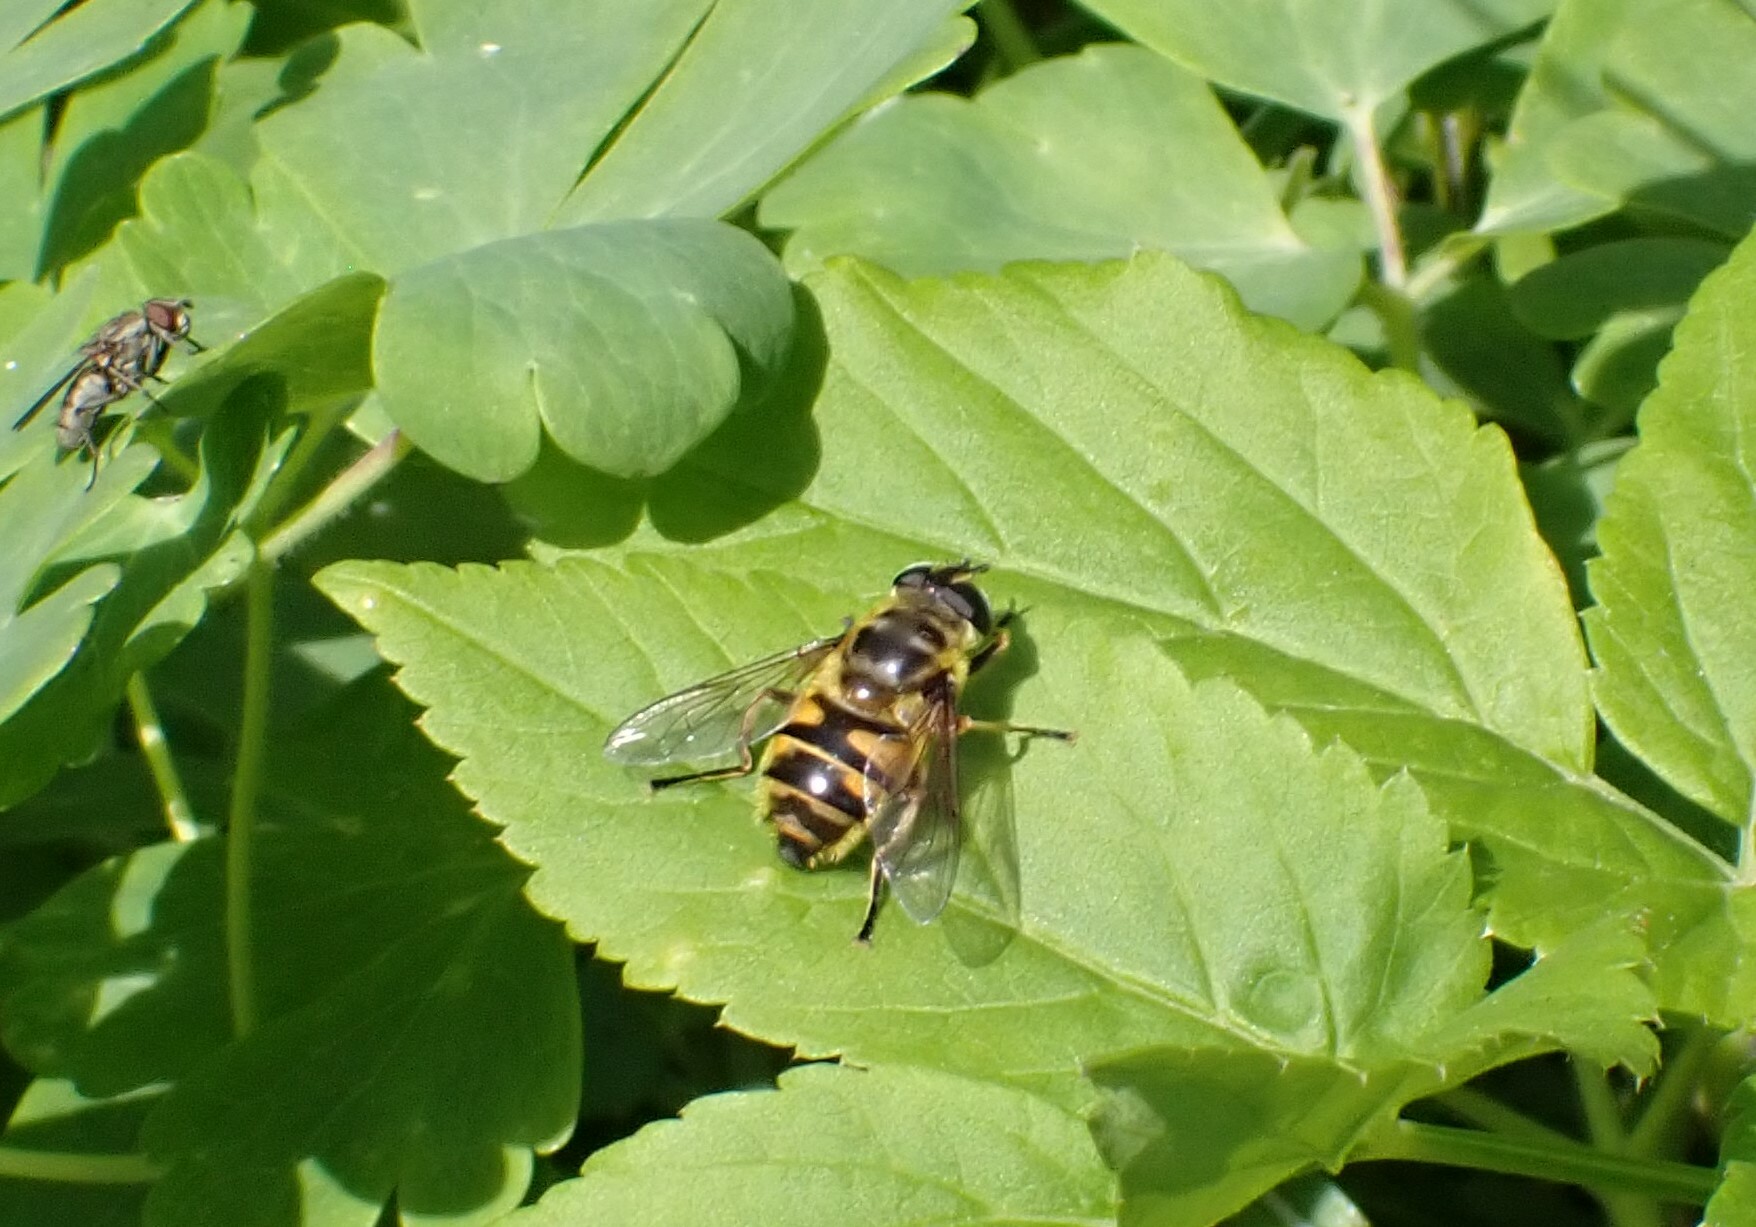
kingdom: Animalia
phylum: Arthropoda
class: Insecta
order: Diptera
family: Syrphidae
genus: Myathropa
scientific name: Myathropa florea
